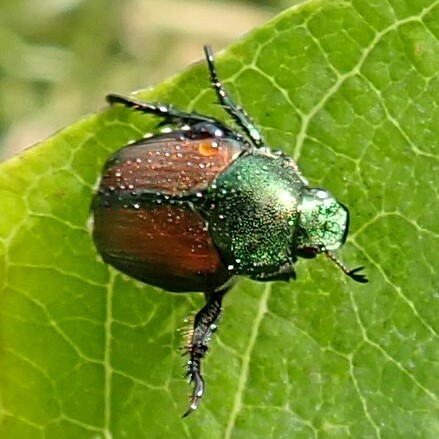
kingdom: Animalia
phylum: Arthropoda
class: Insecta
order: Coleoptera
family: Scarabaeidae
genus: Popillia
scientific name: Popillia japonica
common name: Japanese beetle
